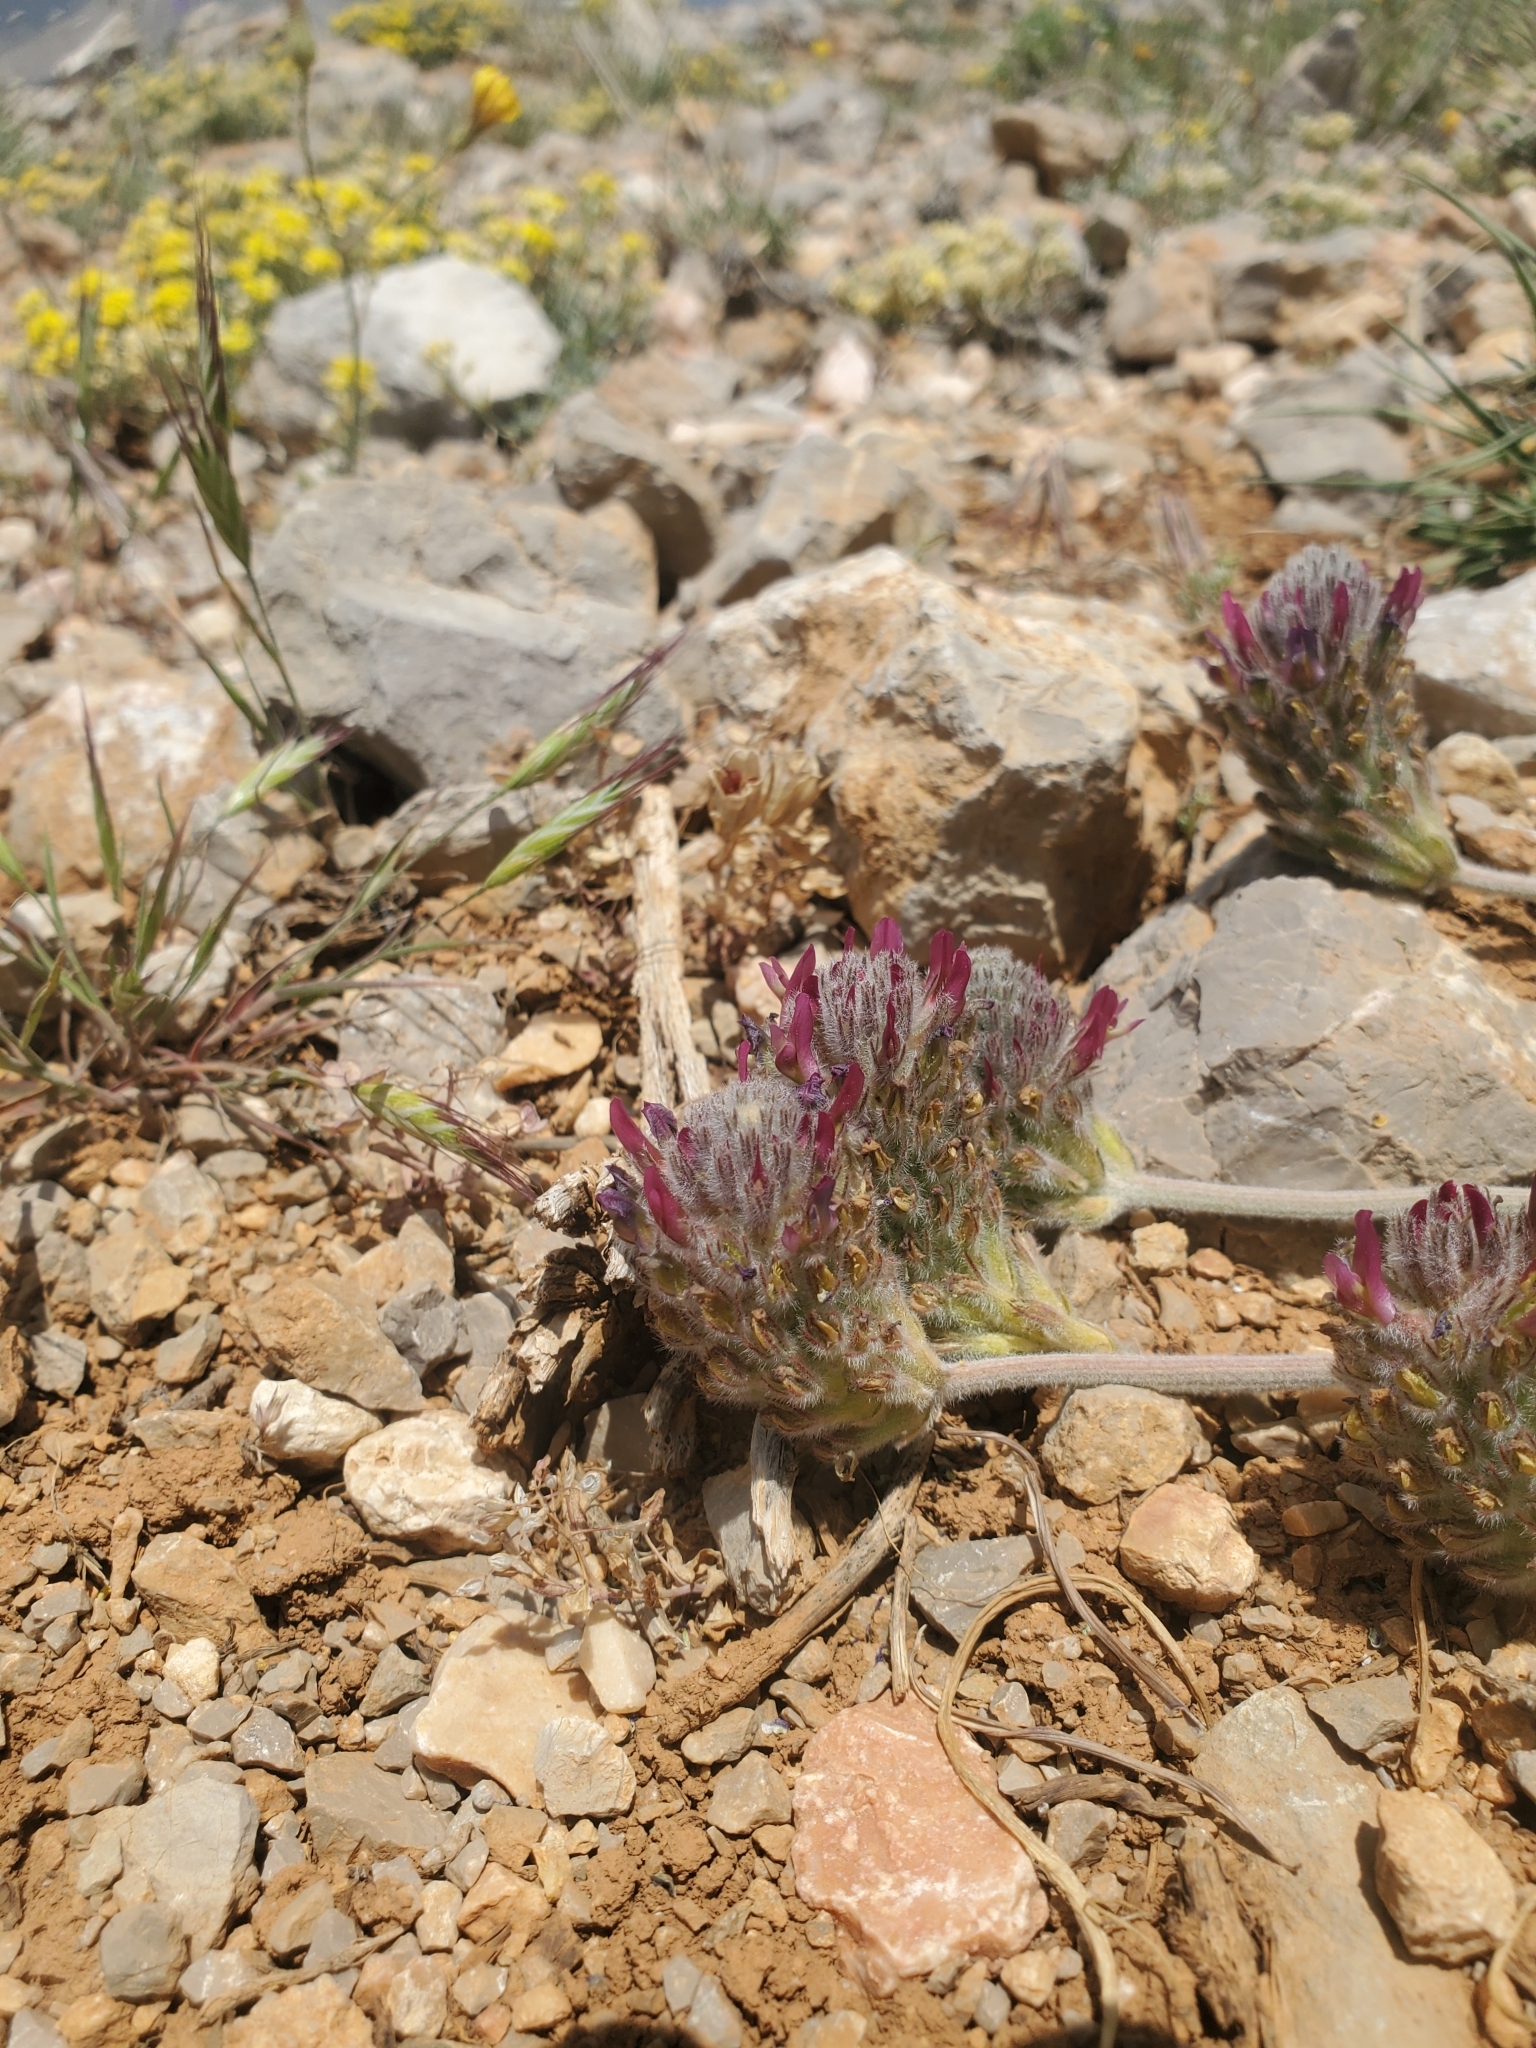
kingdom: Plantae
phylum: Tracheophyta
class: Magnoliopsida
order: Fabales
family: Fabaceae
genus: Astragalus
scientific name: Astragalus emarginatus
